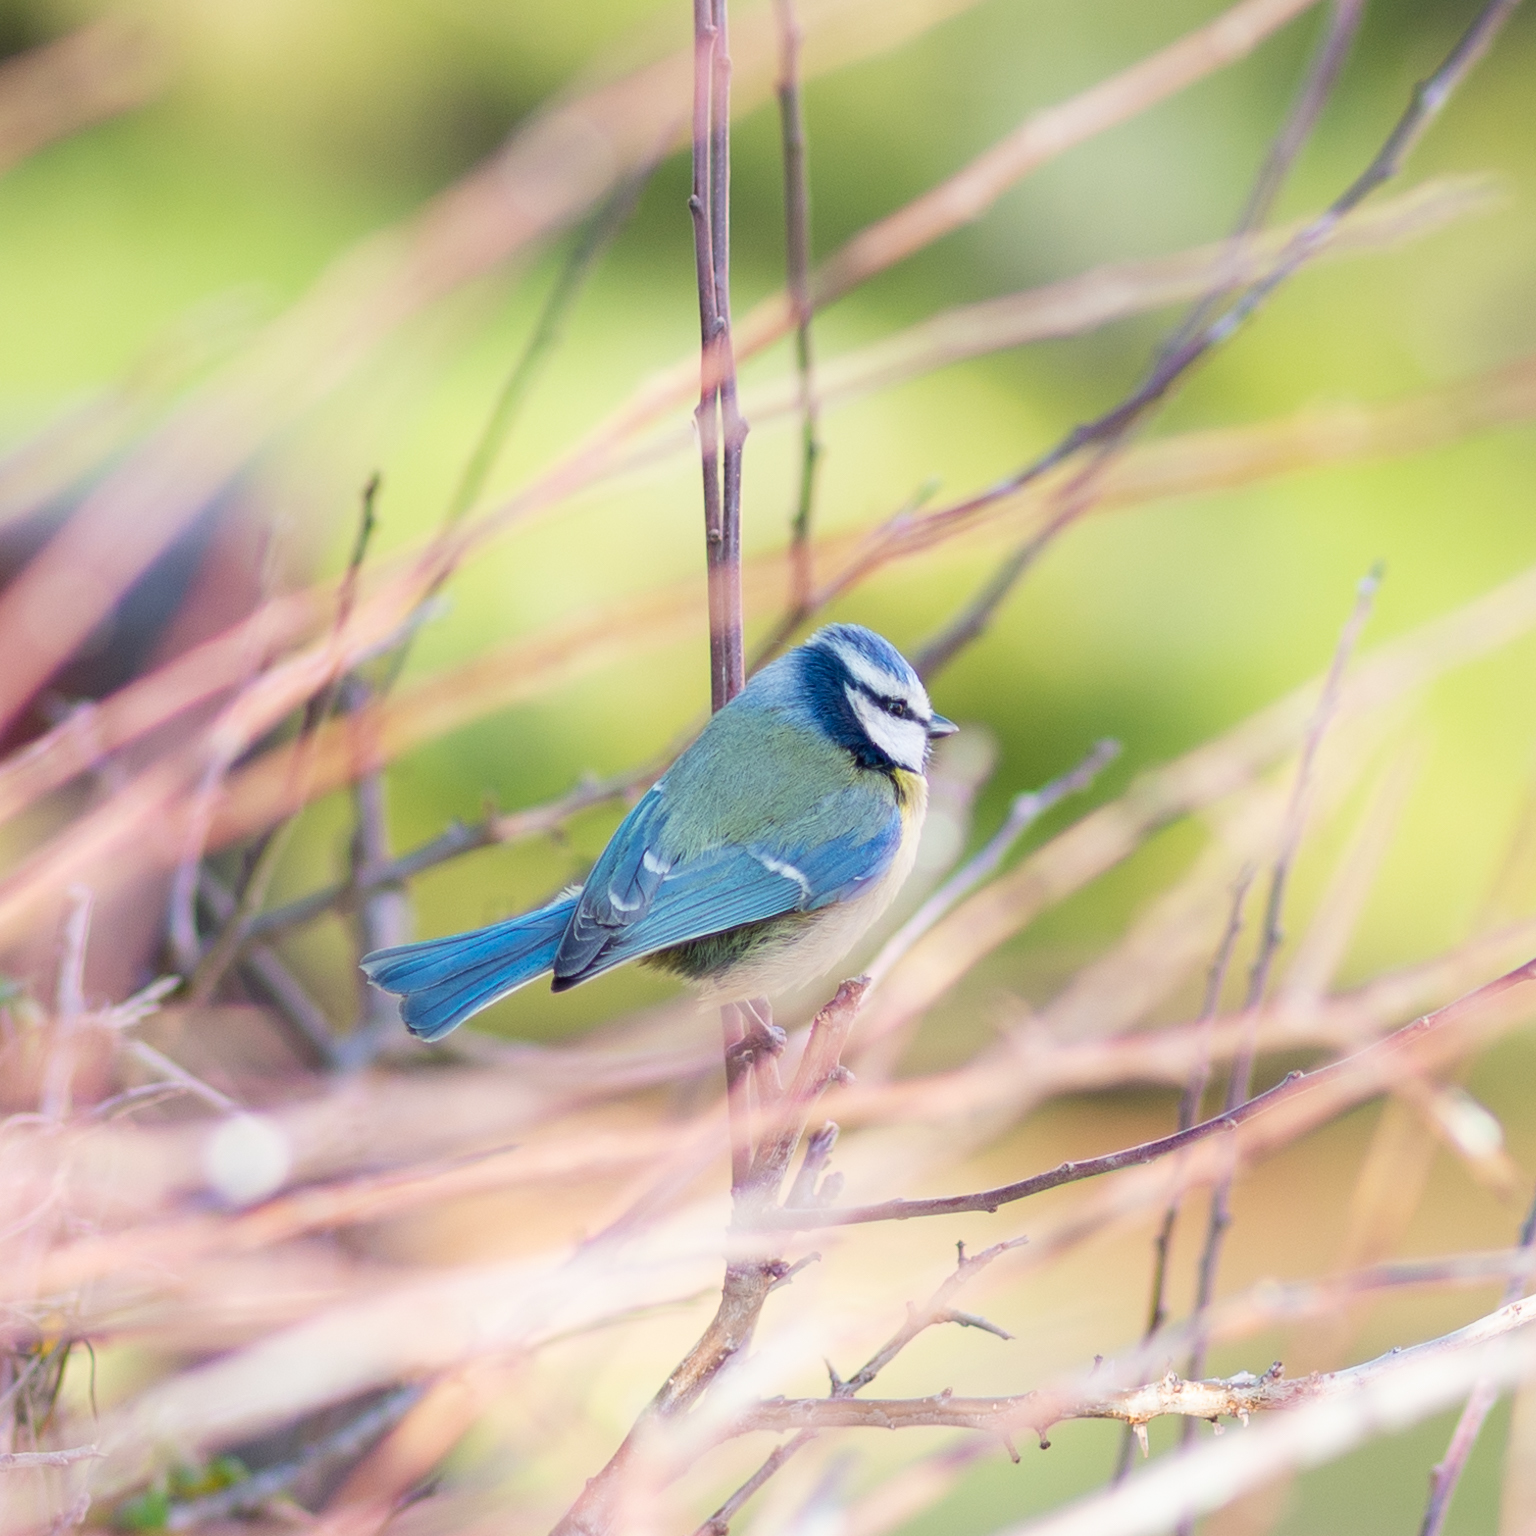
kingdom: Animalia
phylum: Chordata
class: Aves
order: Passeriformes
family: Paridae
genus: Cyanistes
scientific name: Cyanistes caeruleus
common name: Eurasian blue tit
